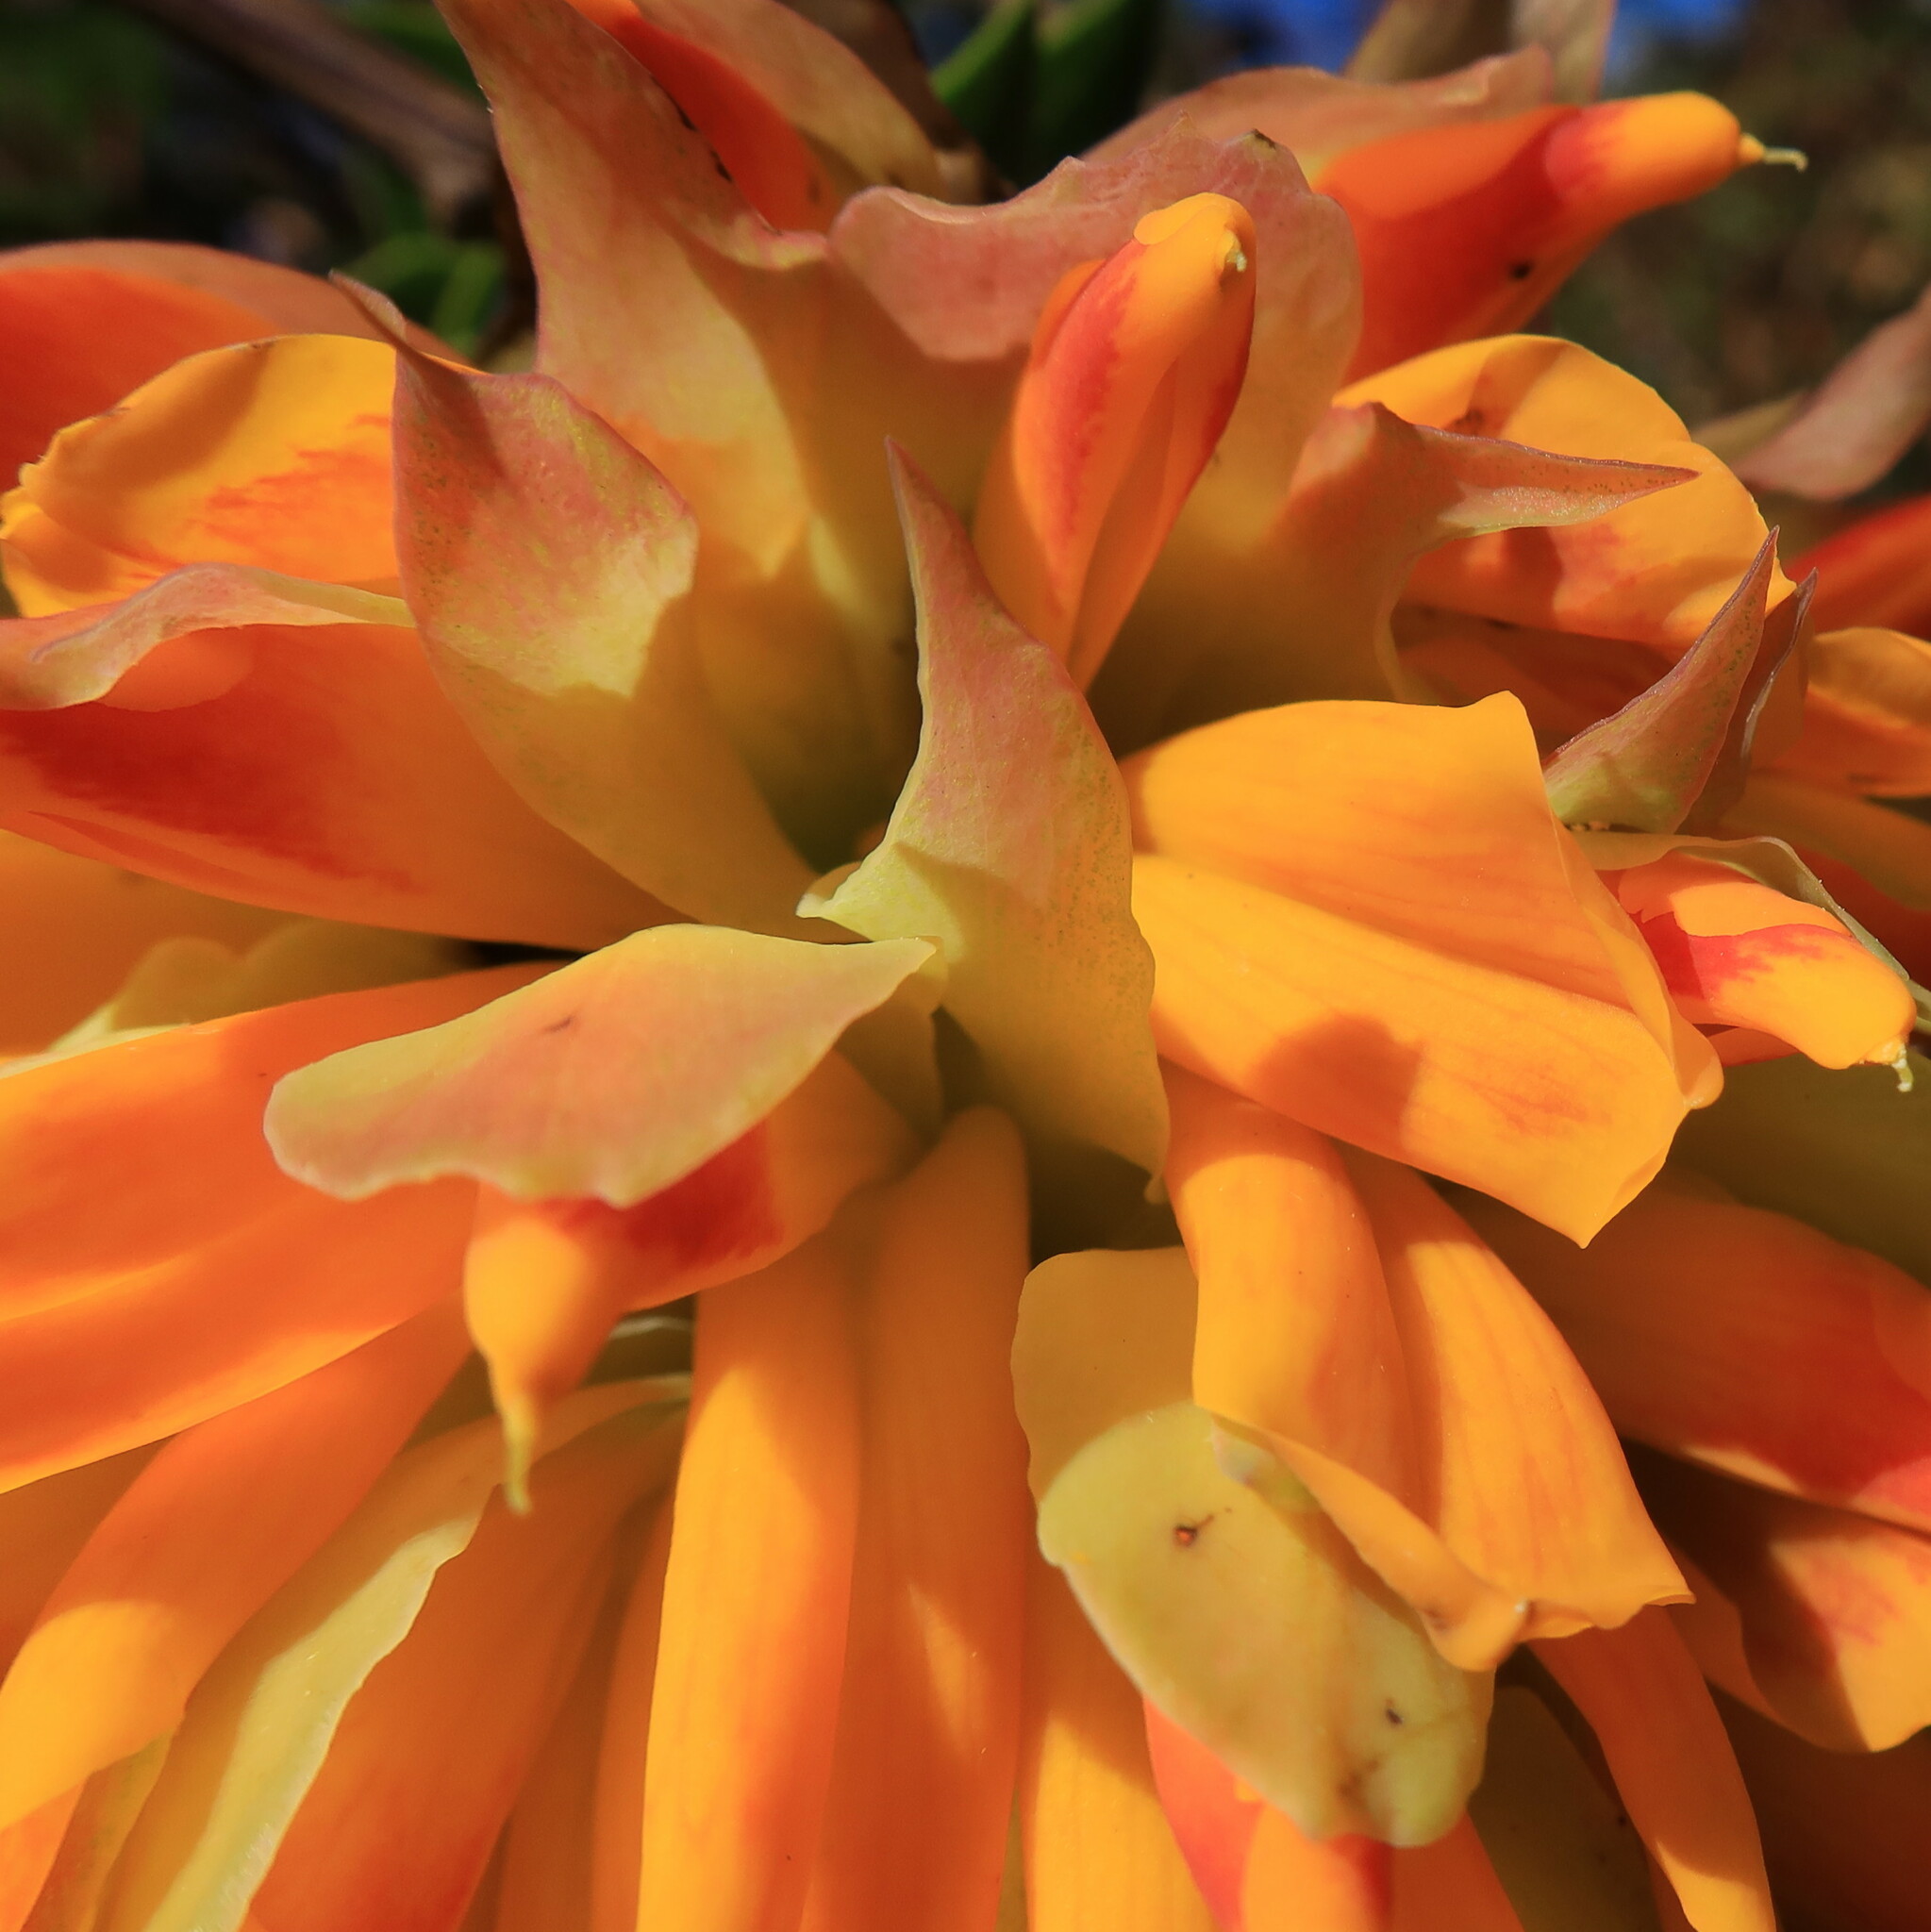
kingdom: Plantae
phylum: Tracheophyta
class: Magnoliopsida
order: Fabales
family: Fabaceae
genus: Liparia
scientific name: Liparia splendens
